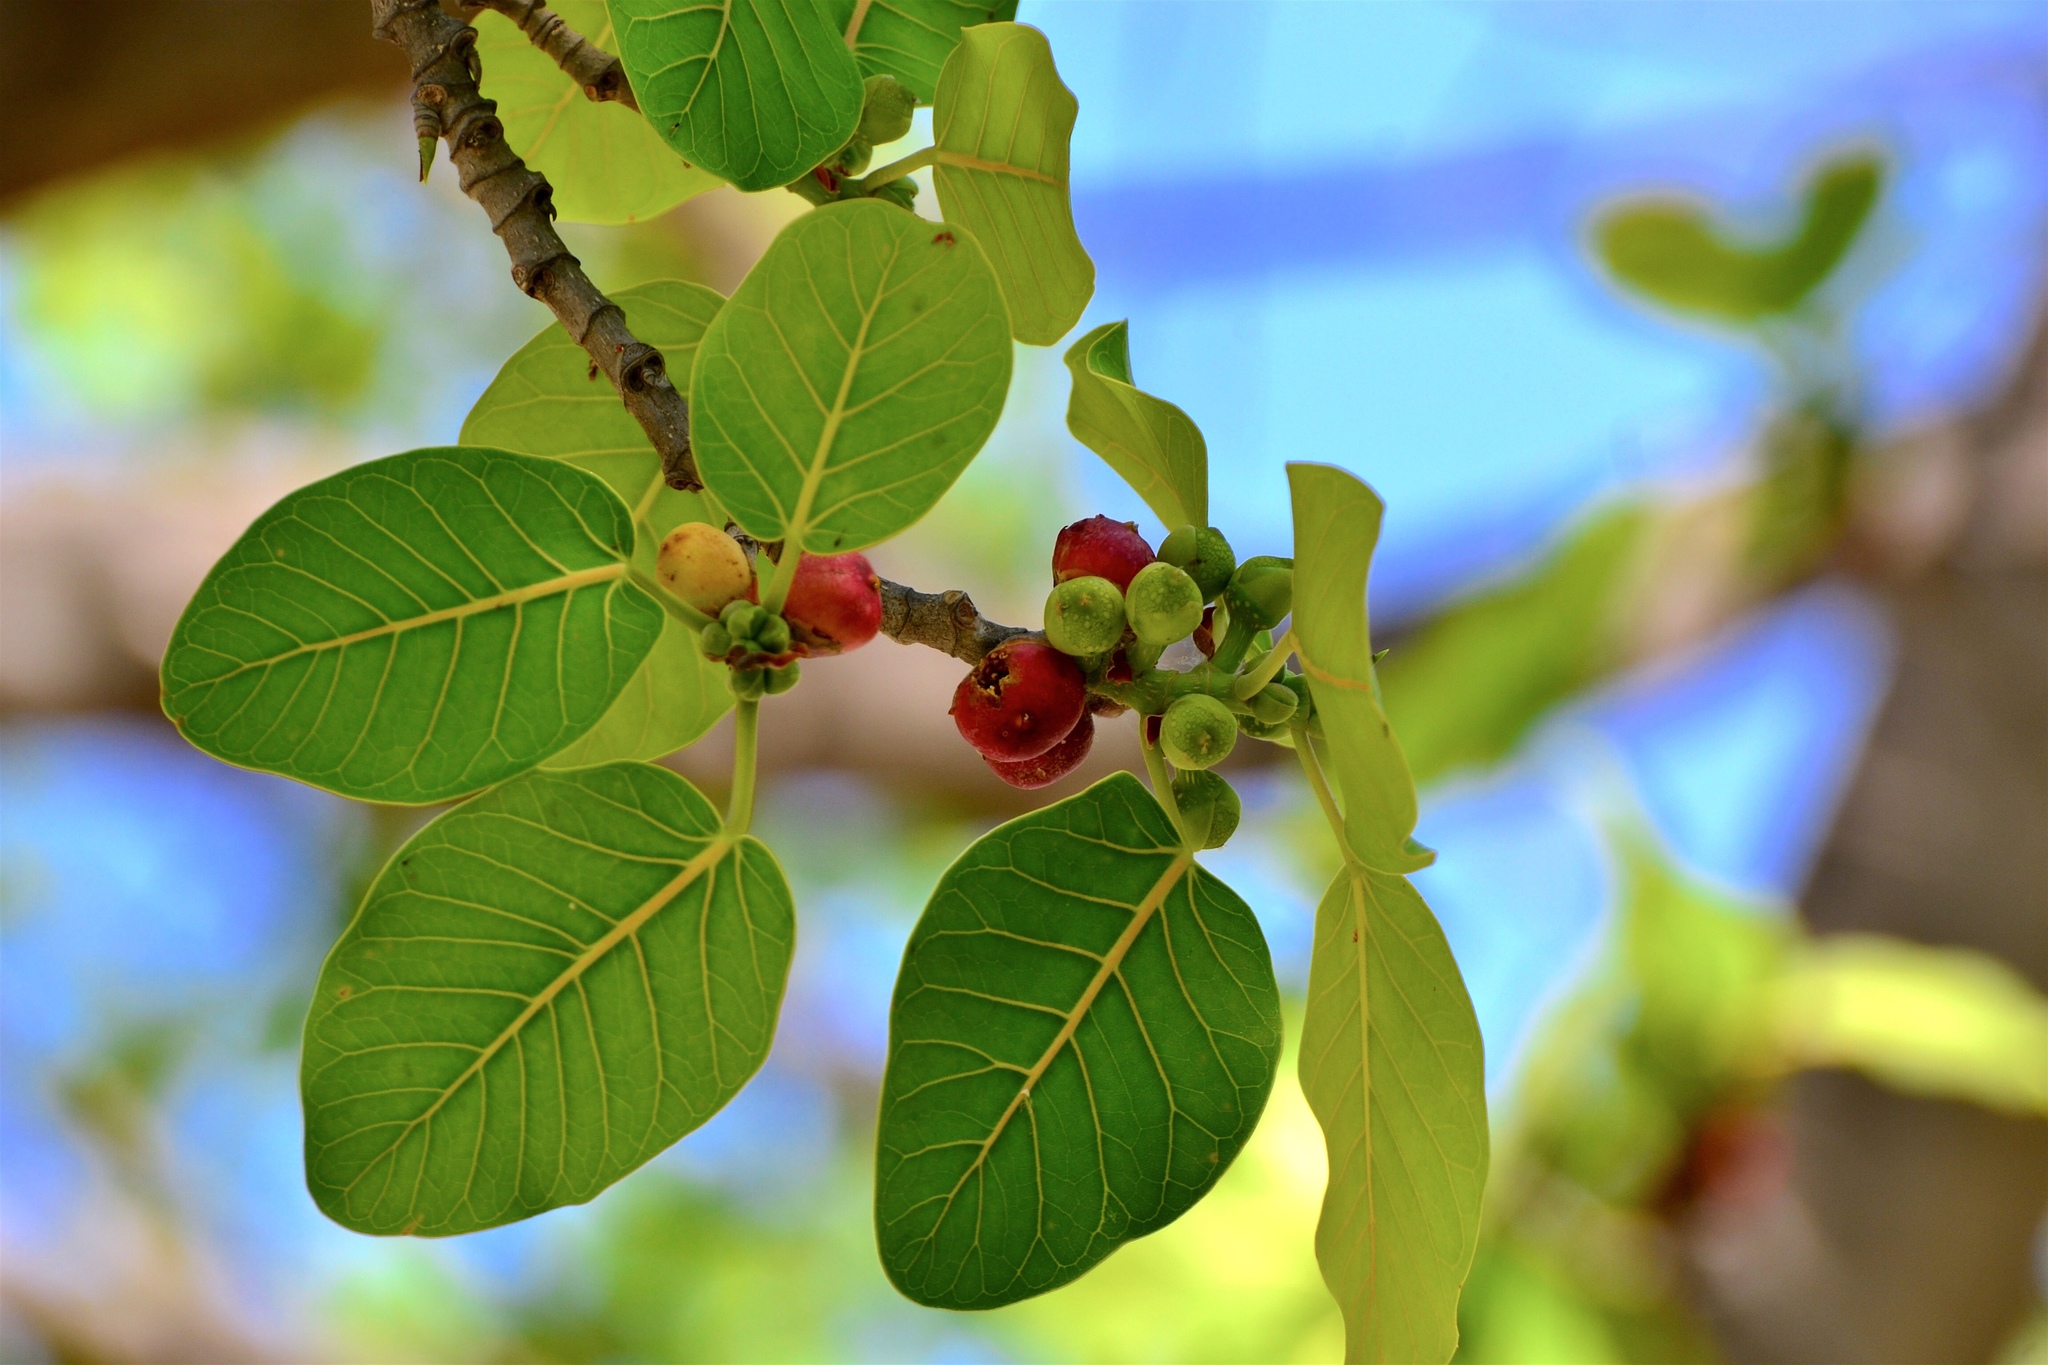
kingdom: Plantae
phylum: Tracheophyta
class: Magnoliopsida
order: Rosales
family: Moraceae
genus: Ficus
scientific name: Ficus aurea
